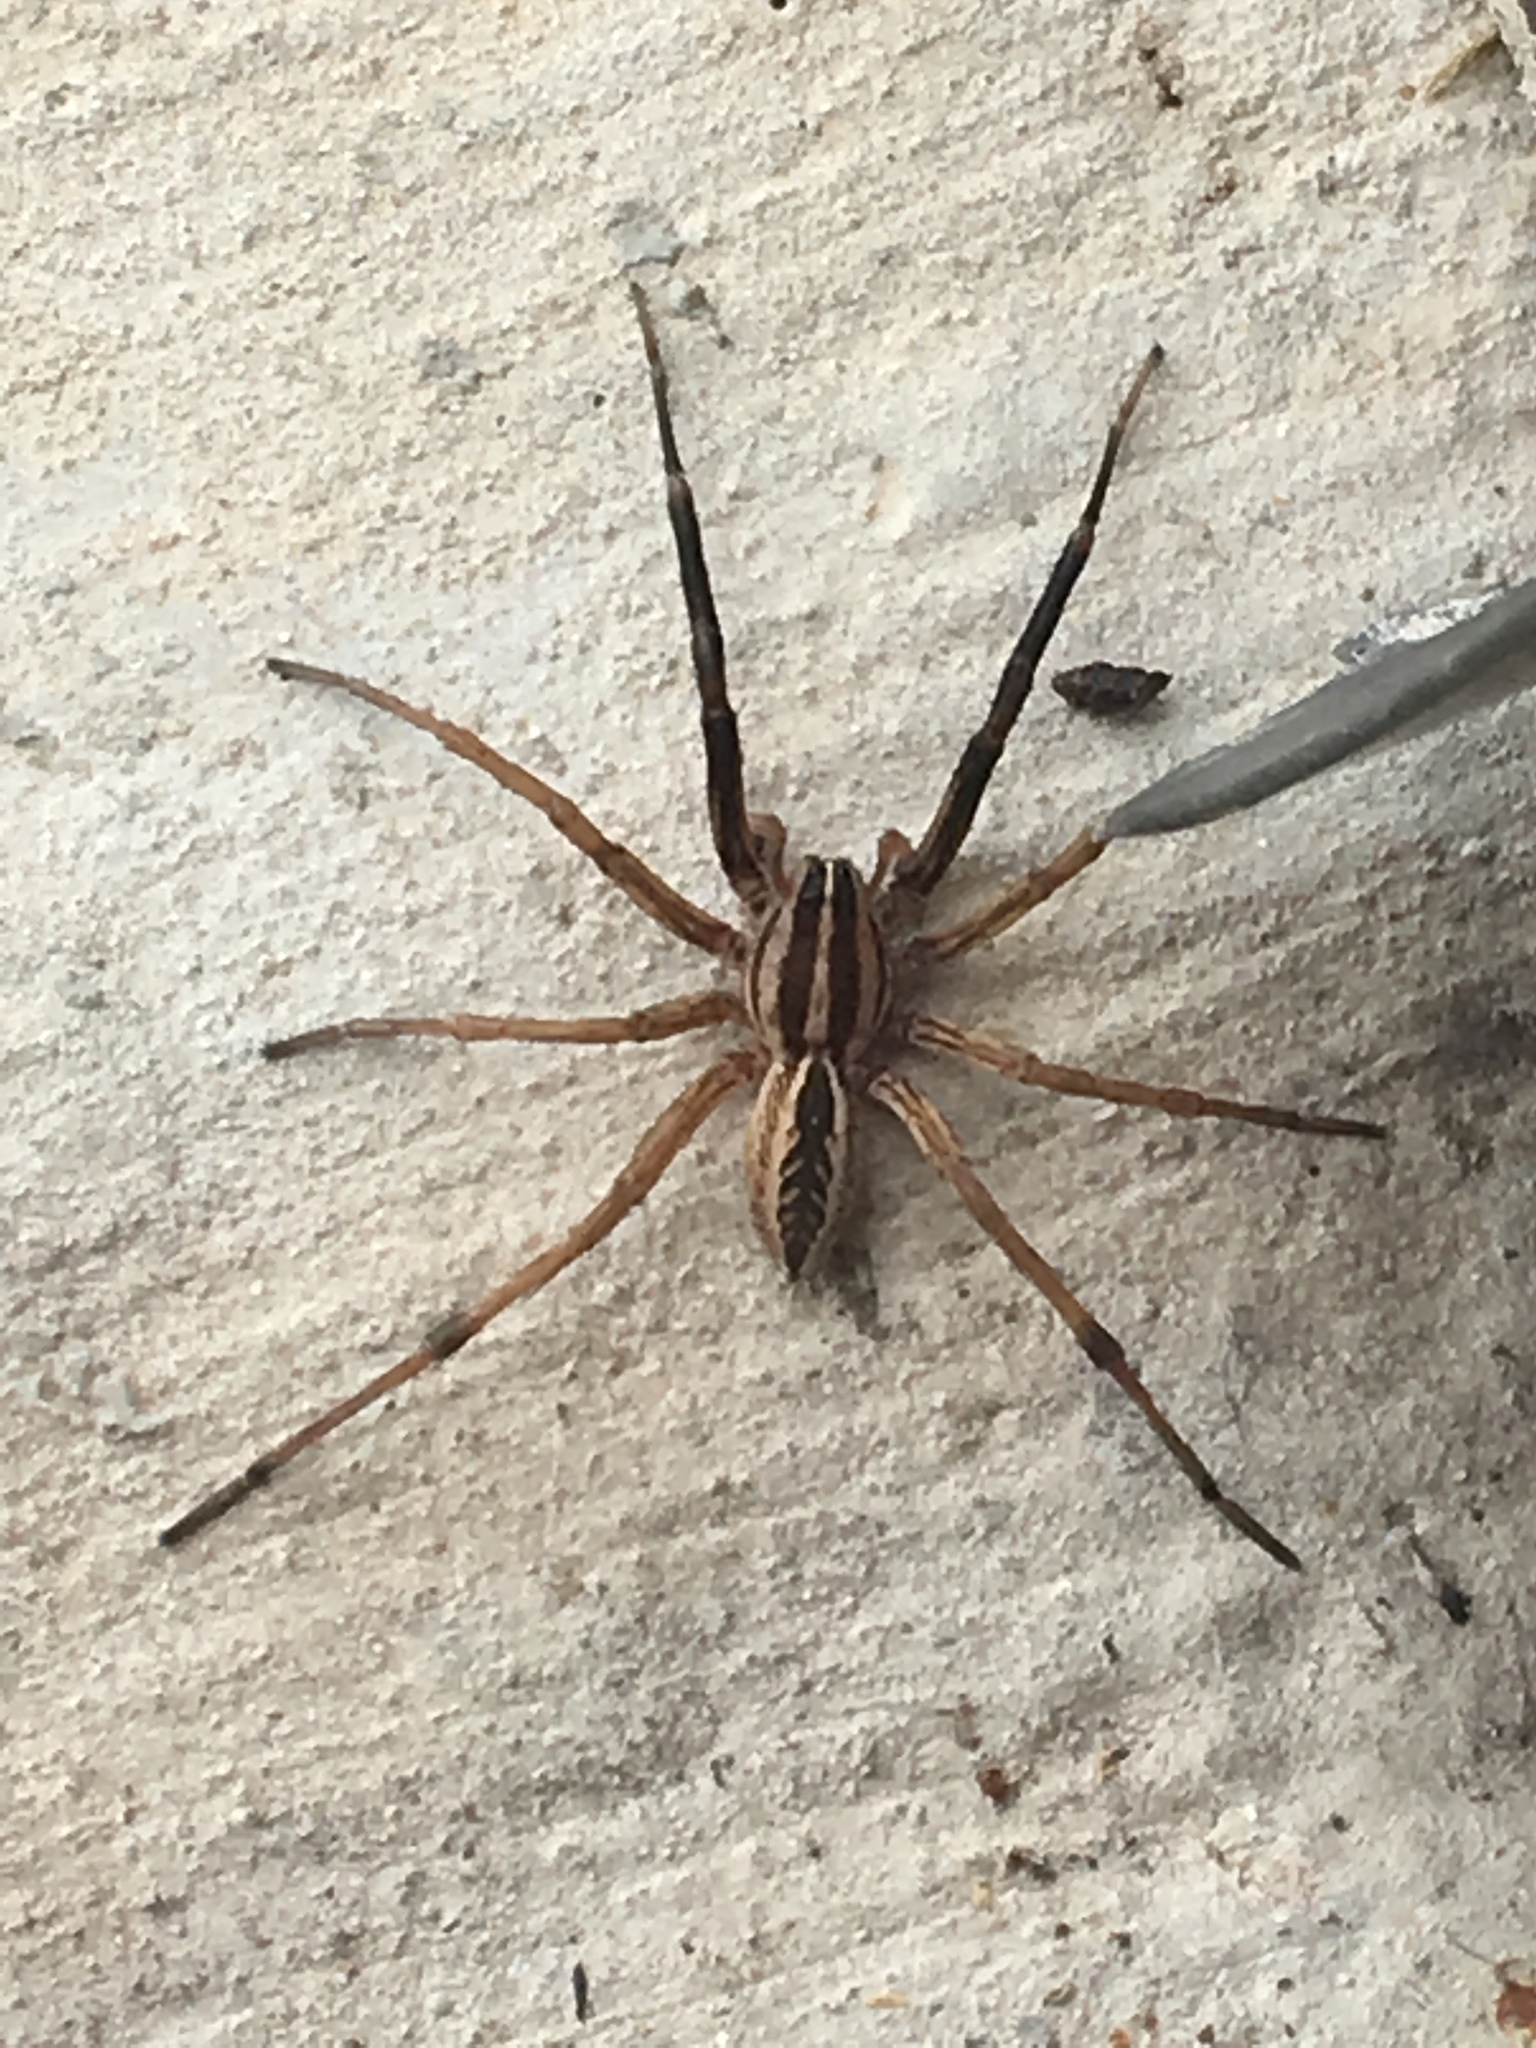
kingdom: Animalia
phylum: Arthropoda
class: Arachnida
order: Araneae
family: Lycosidae
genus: Rabidosa
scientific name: Rabidosa rabida
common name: Rabid wolf spider
